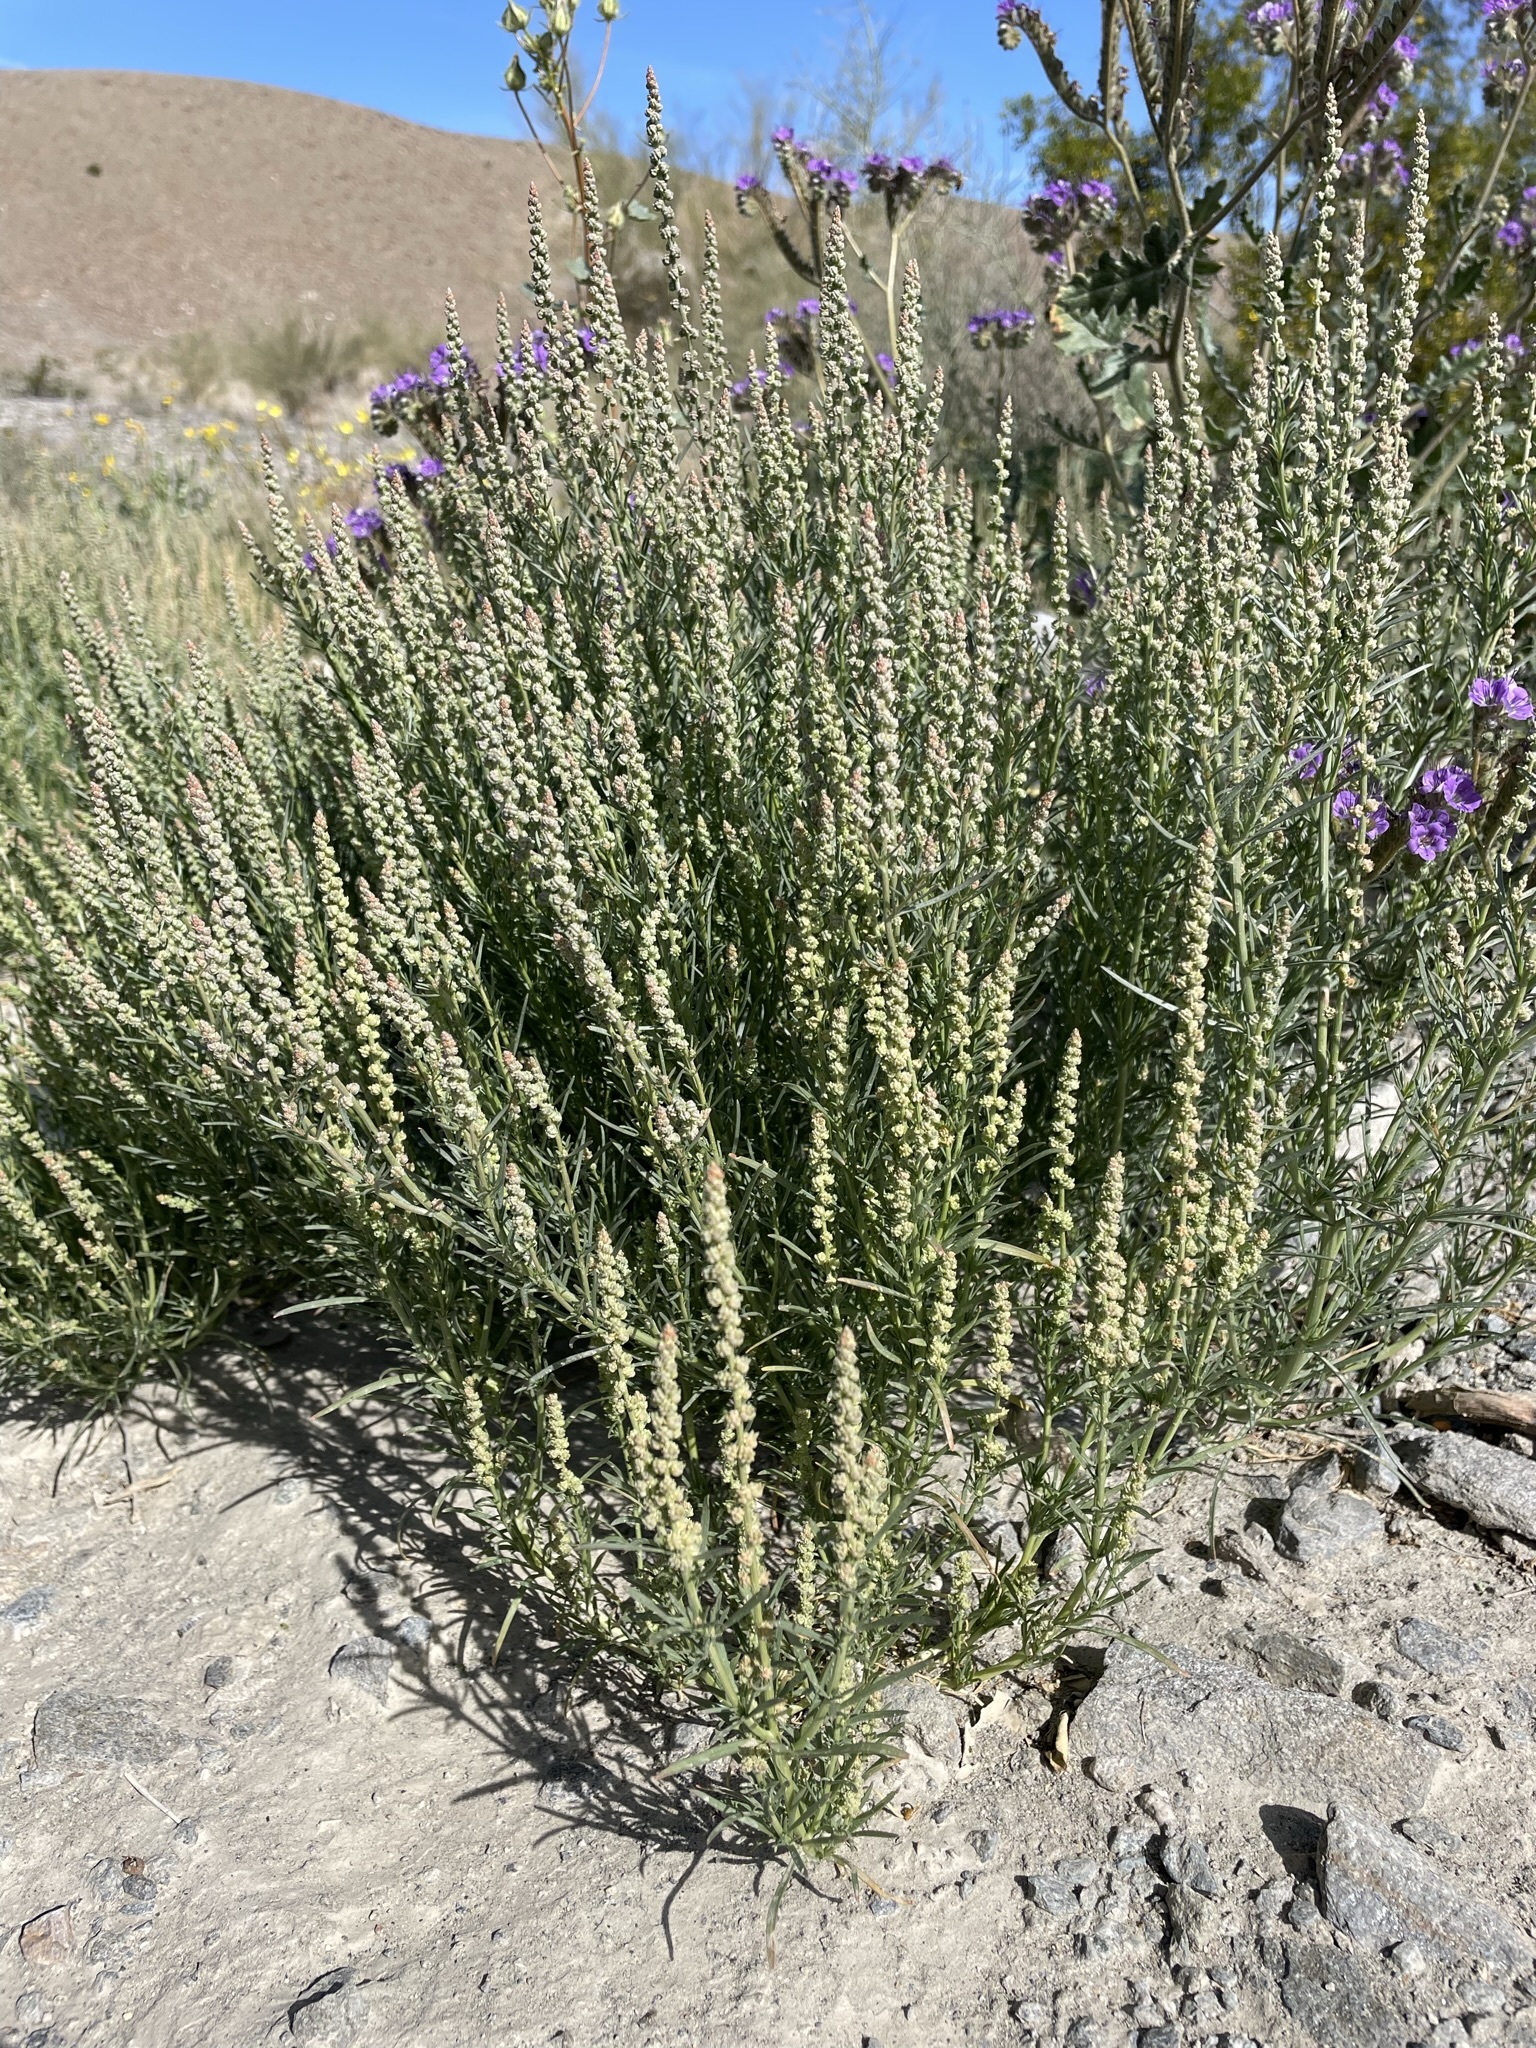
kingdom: Plantae
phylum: Tracheophyta
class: Magnoliopsida
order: Brassicales
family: Resedaceae
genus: Oligomeris
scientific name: Oligomeris linifolia
